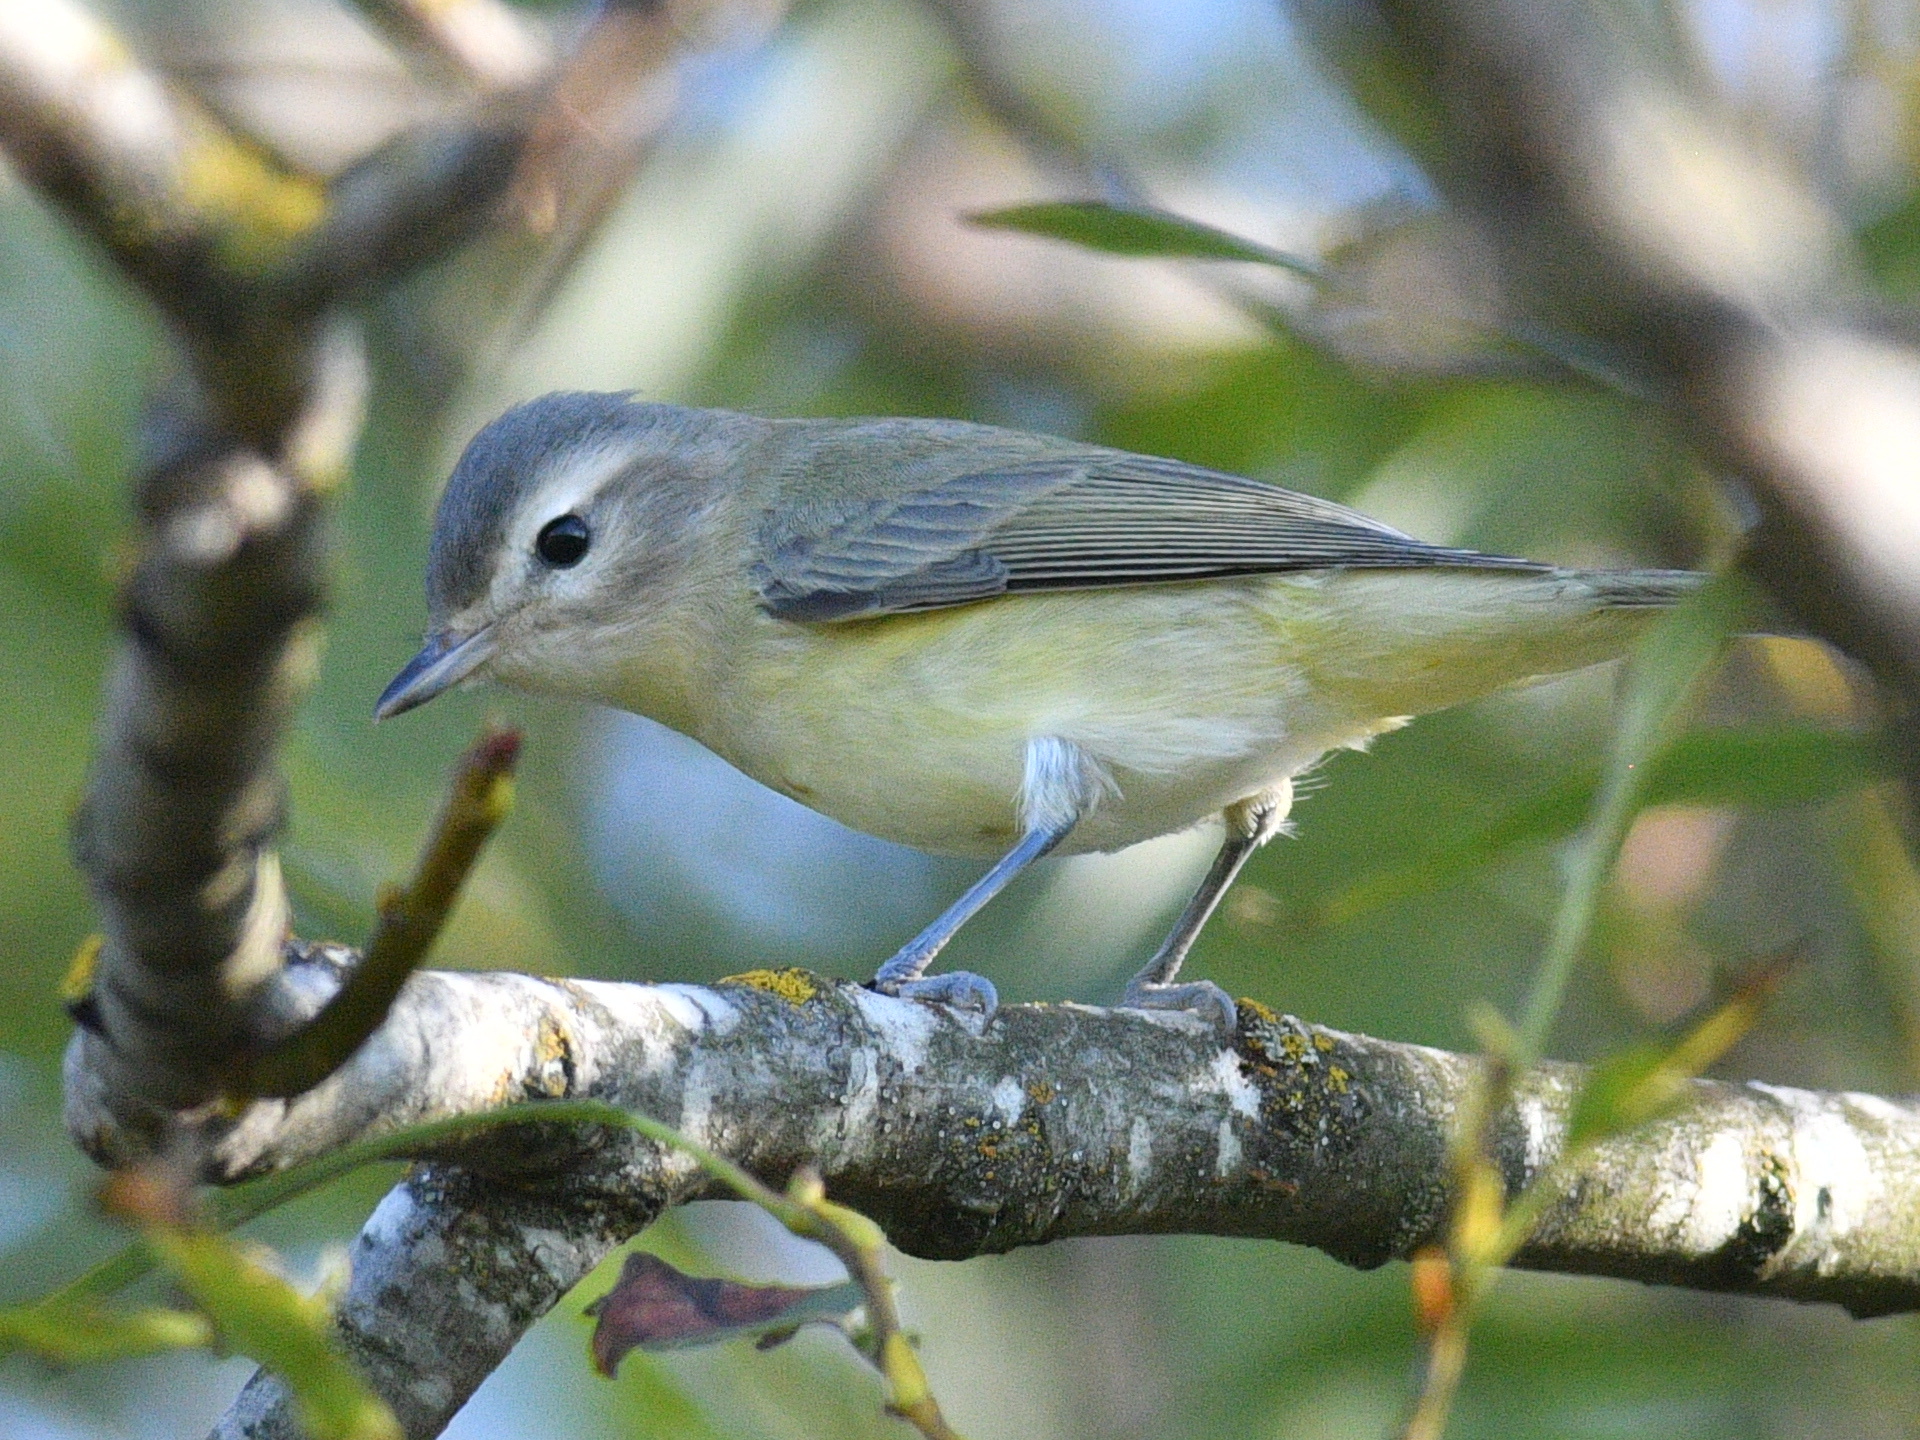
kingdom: Animalia
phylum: Chordata
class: Aves
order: Passeriformes
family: Vireonidae
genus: Vireo
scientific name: Vireo gilvus
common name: Warbling vireo
